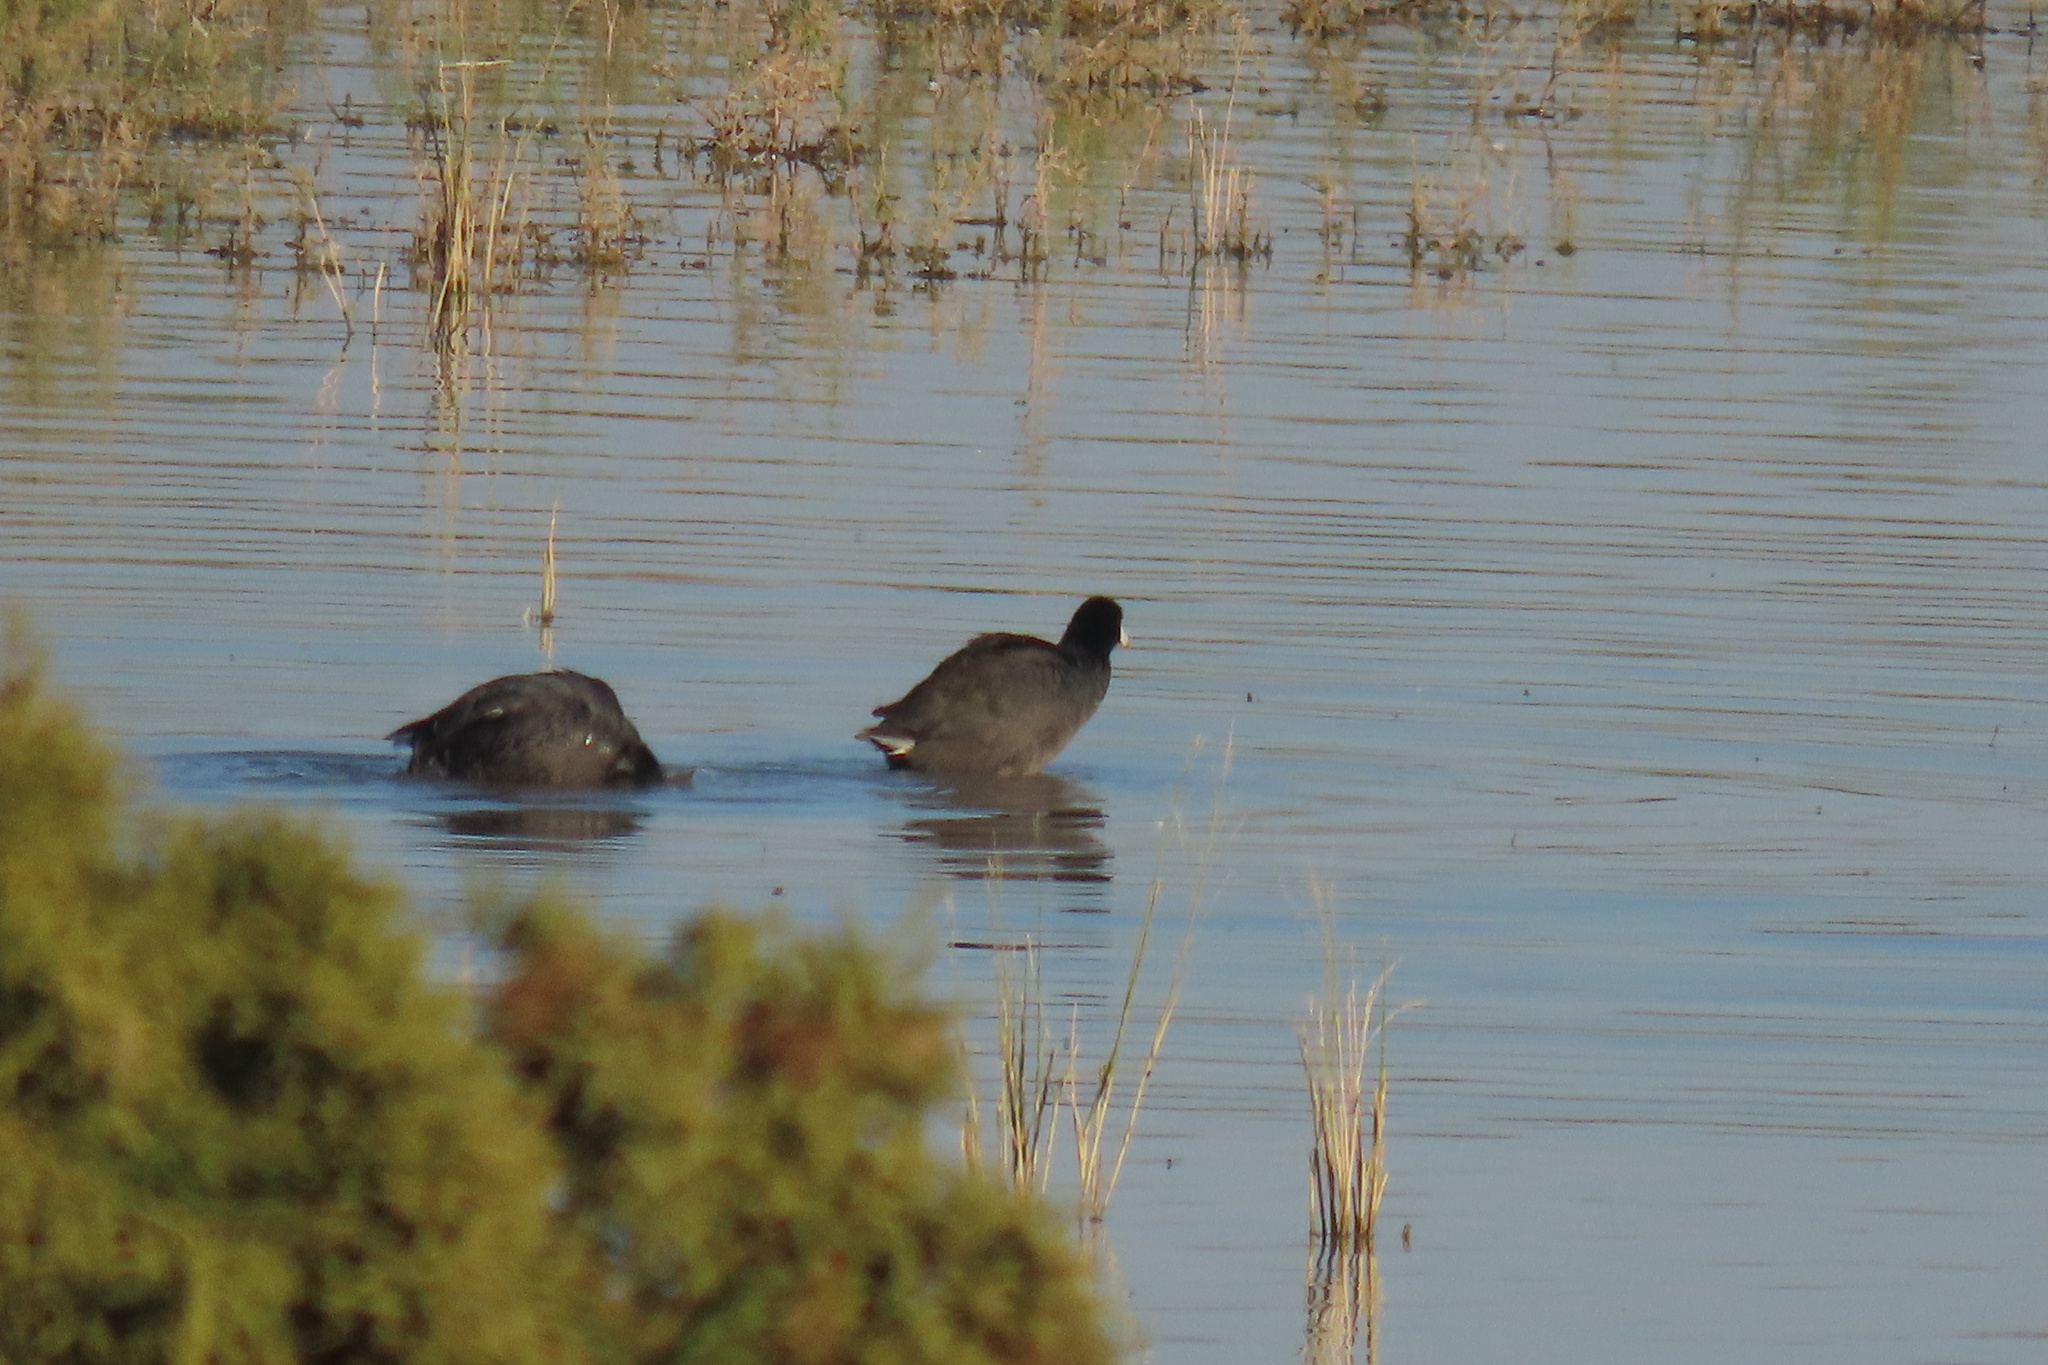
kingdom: Animalia
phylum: Chordata
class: Aves
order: Gruiformes
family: Rallidae
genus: Fulica
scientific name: Fulica americana
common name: American coot
